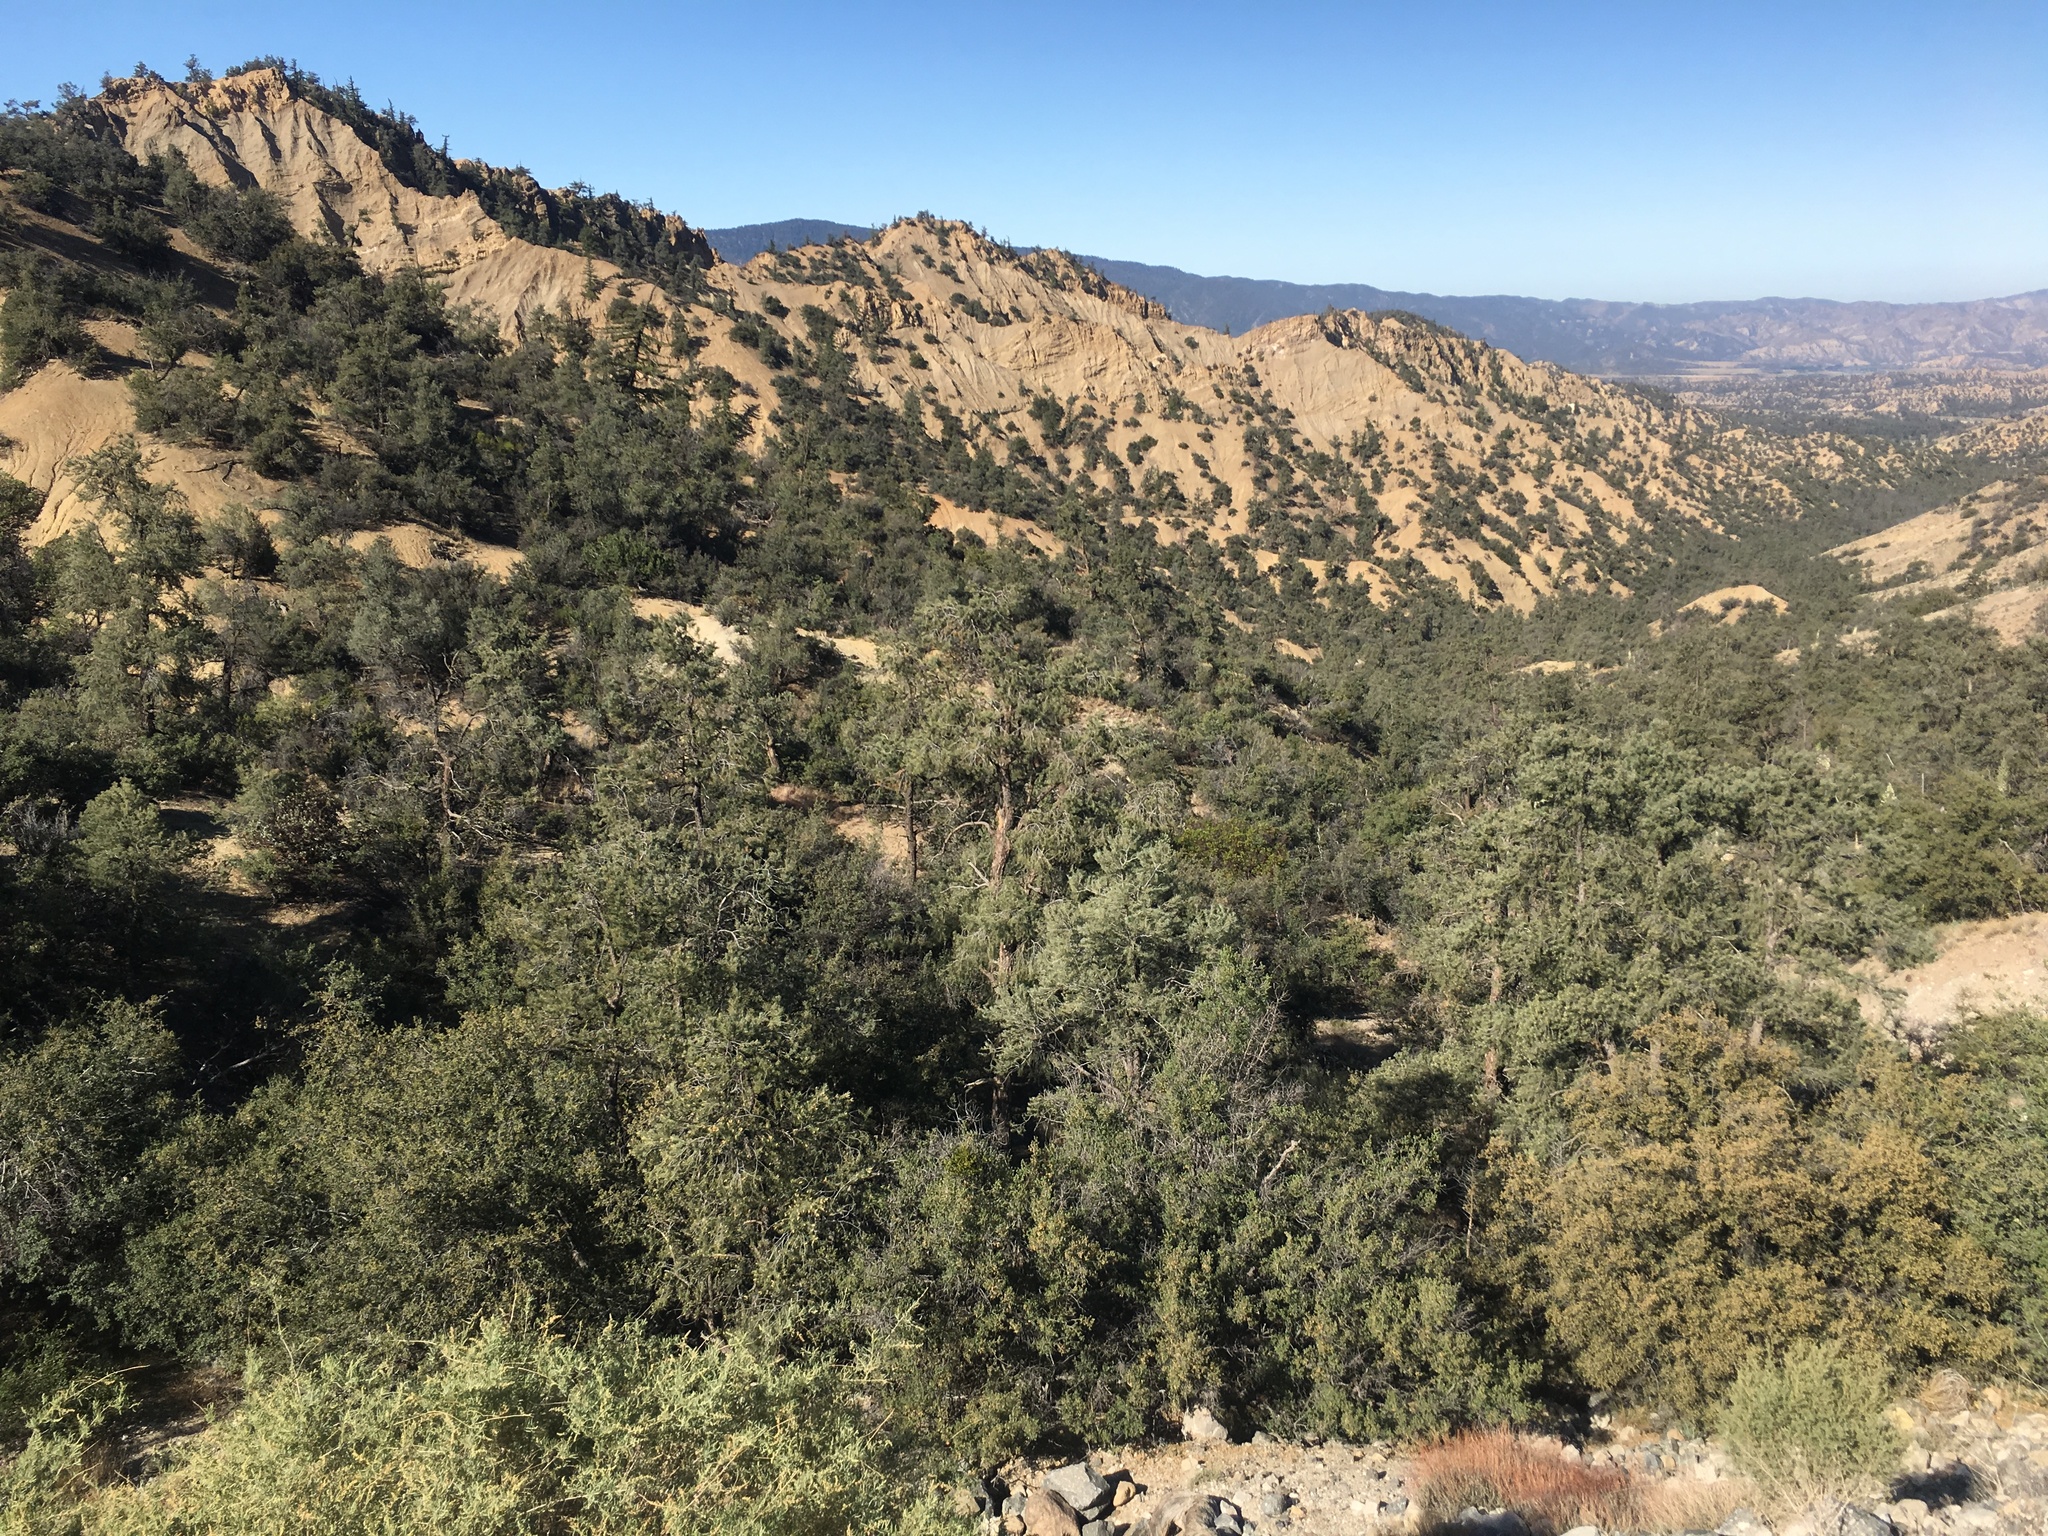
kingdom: Plantae
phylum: Tracheophyta
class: Pinopsida
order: Pinales
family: Pinaceae
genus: Pinus
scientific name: Pinus monophylla
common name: One-leaved nut pine
